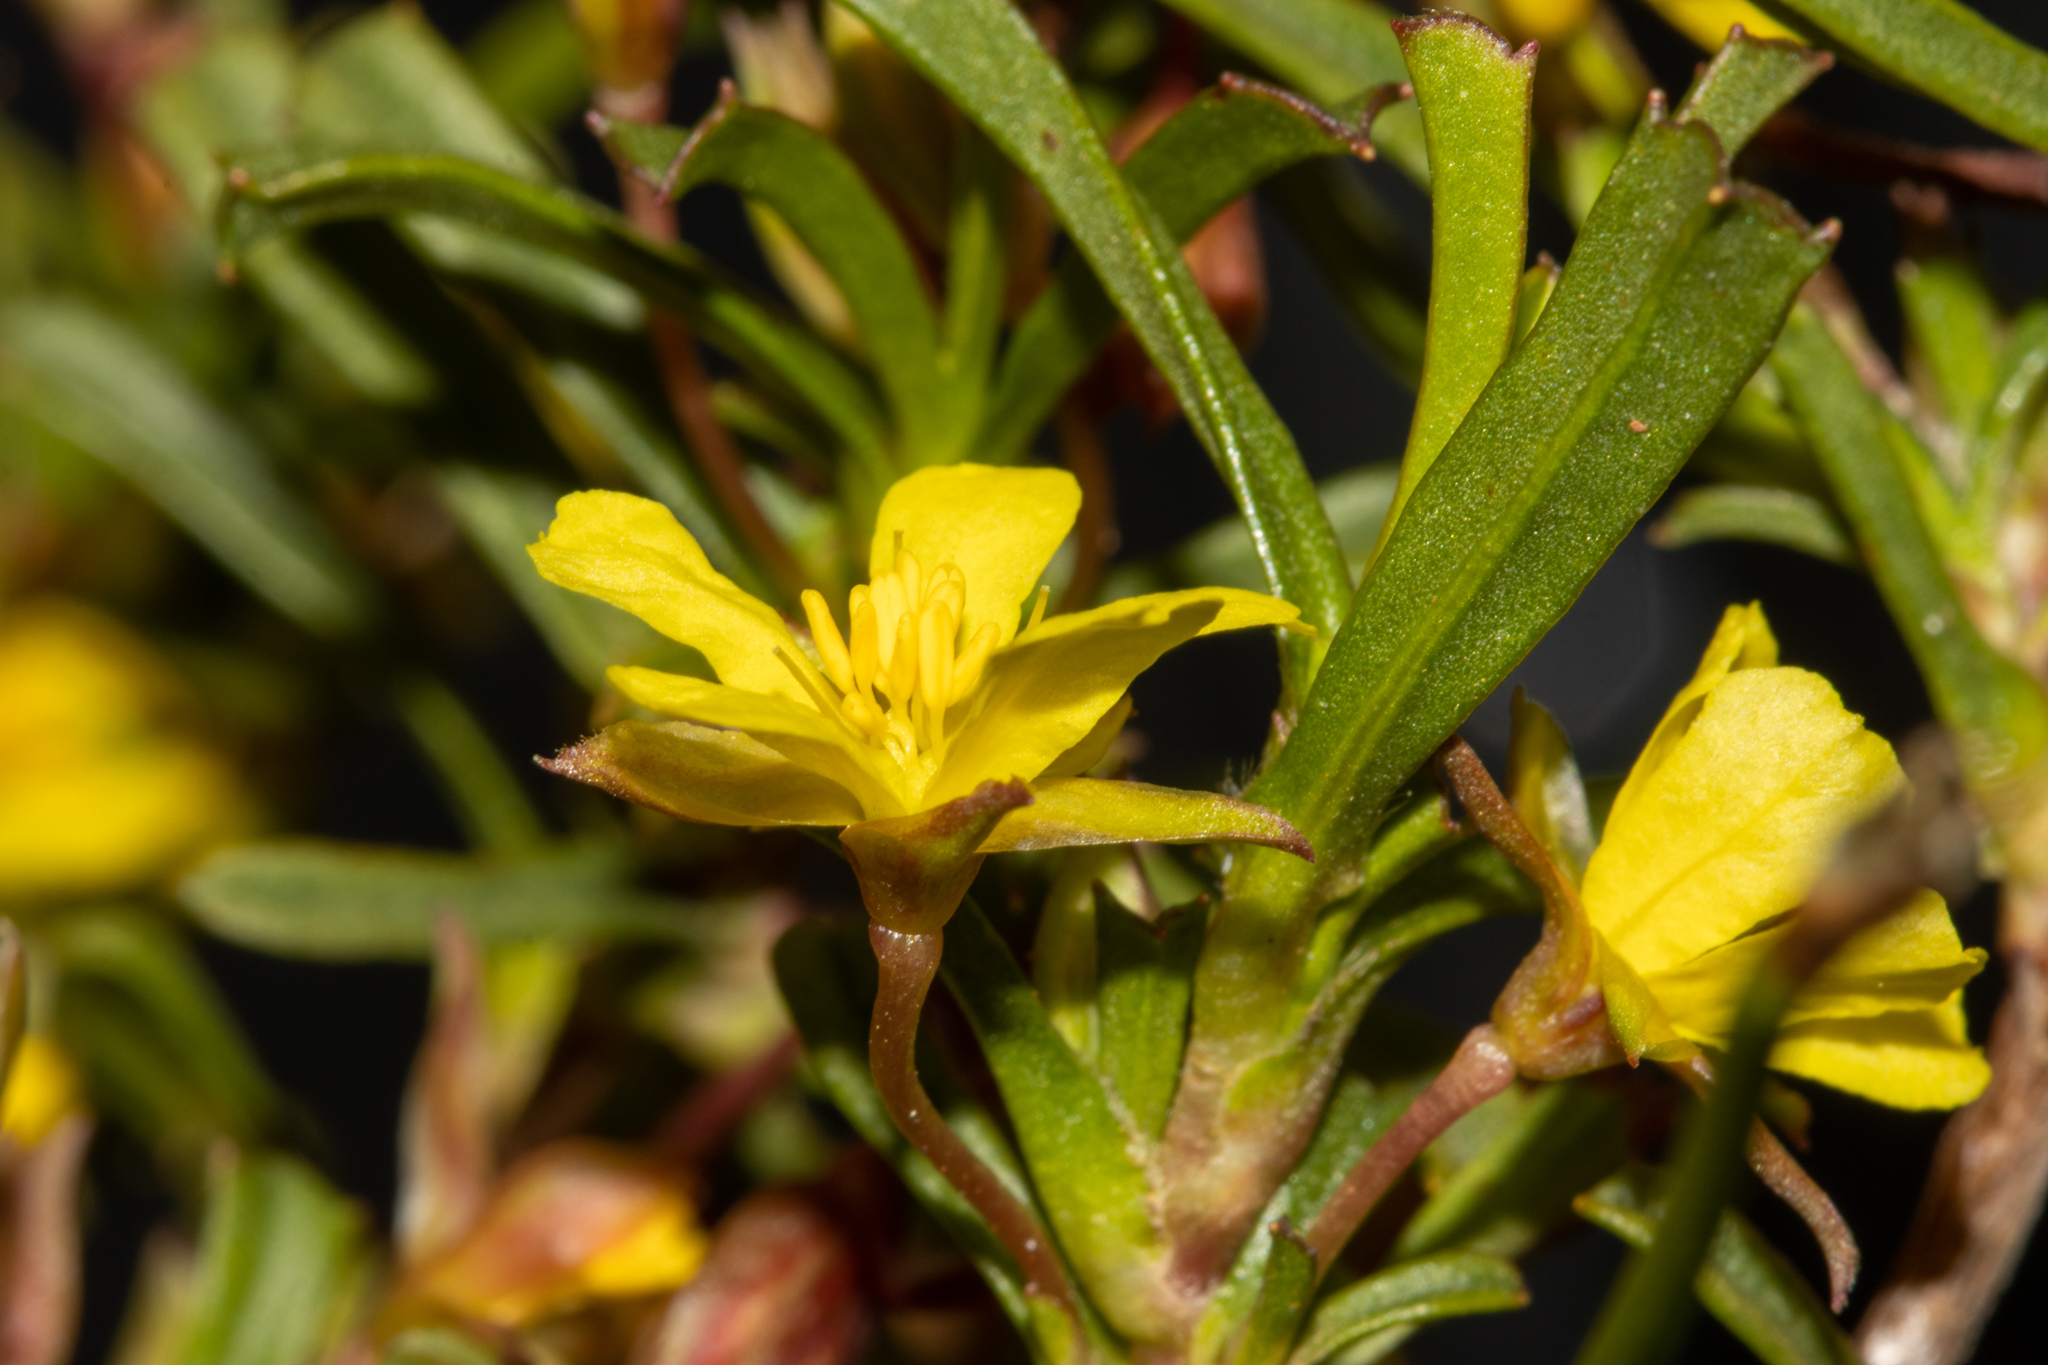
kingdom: Plantae
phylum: Tracheophyta
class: Magnoliopsida
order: Dilleniales
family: Dilleniaceae
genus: Hibbertia
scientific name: Hibbertia racemosa
